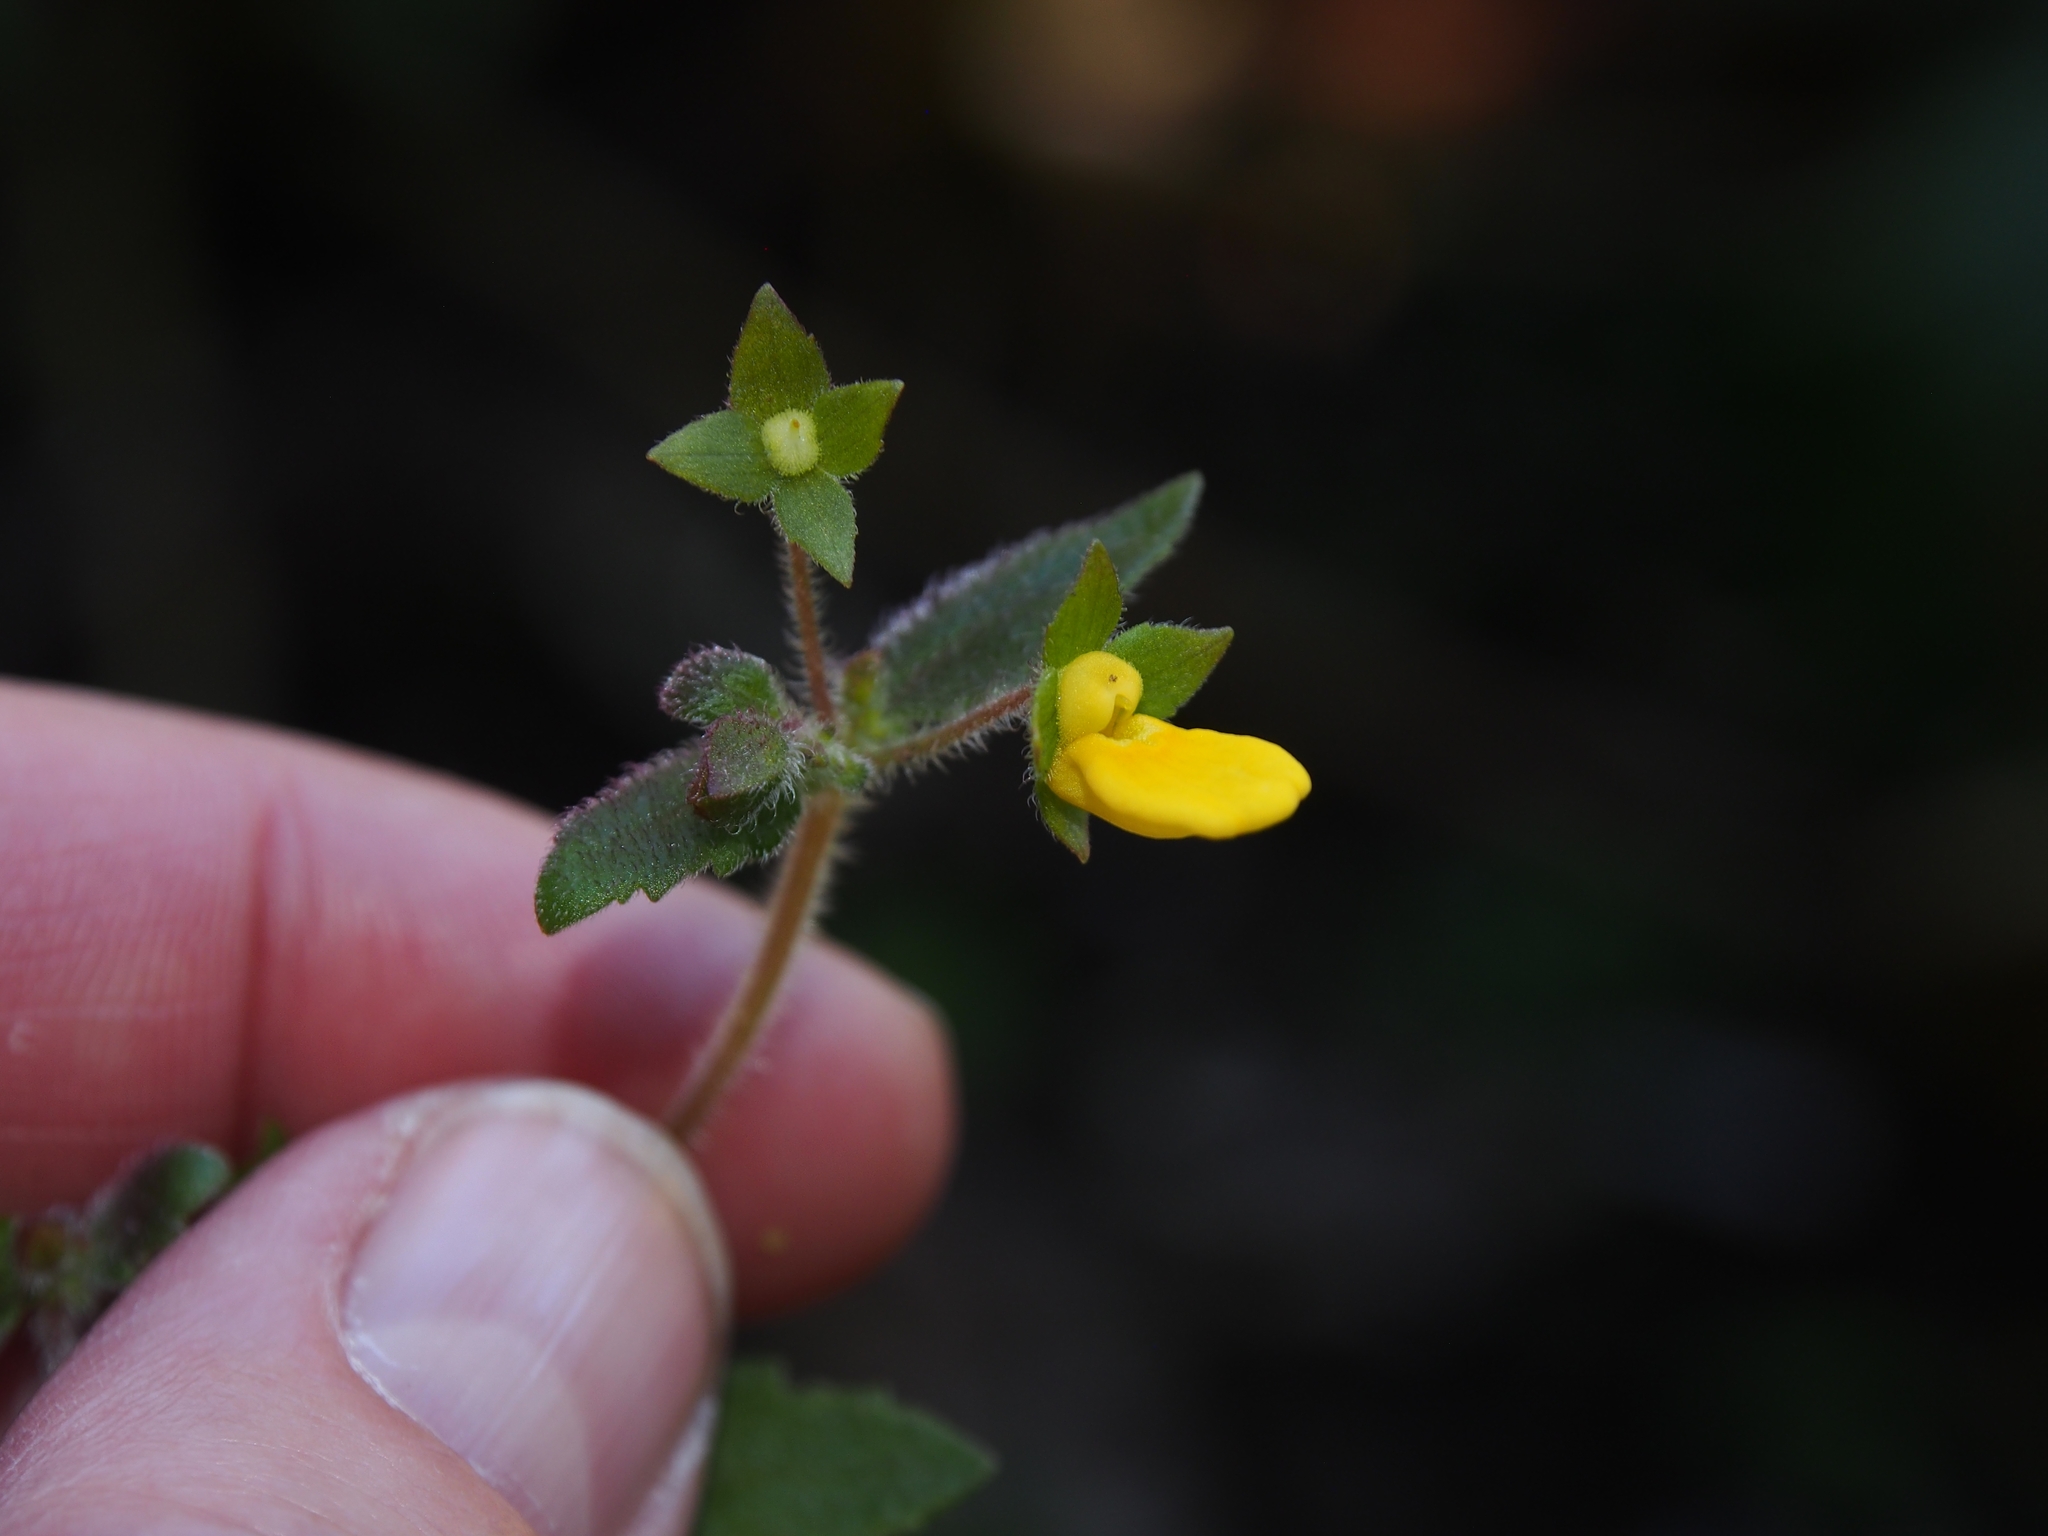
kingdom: Plantae
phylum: Tracheophyta
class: Magnoliopsida
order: Lamiales
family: Calceolariaceae
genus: Calceolaria
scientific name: Calceolaria mexicana
